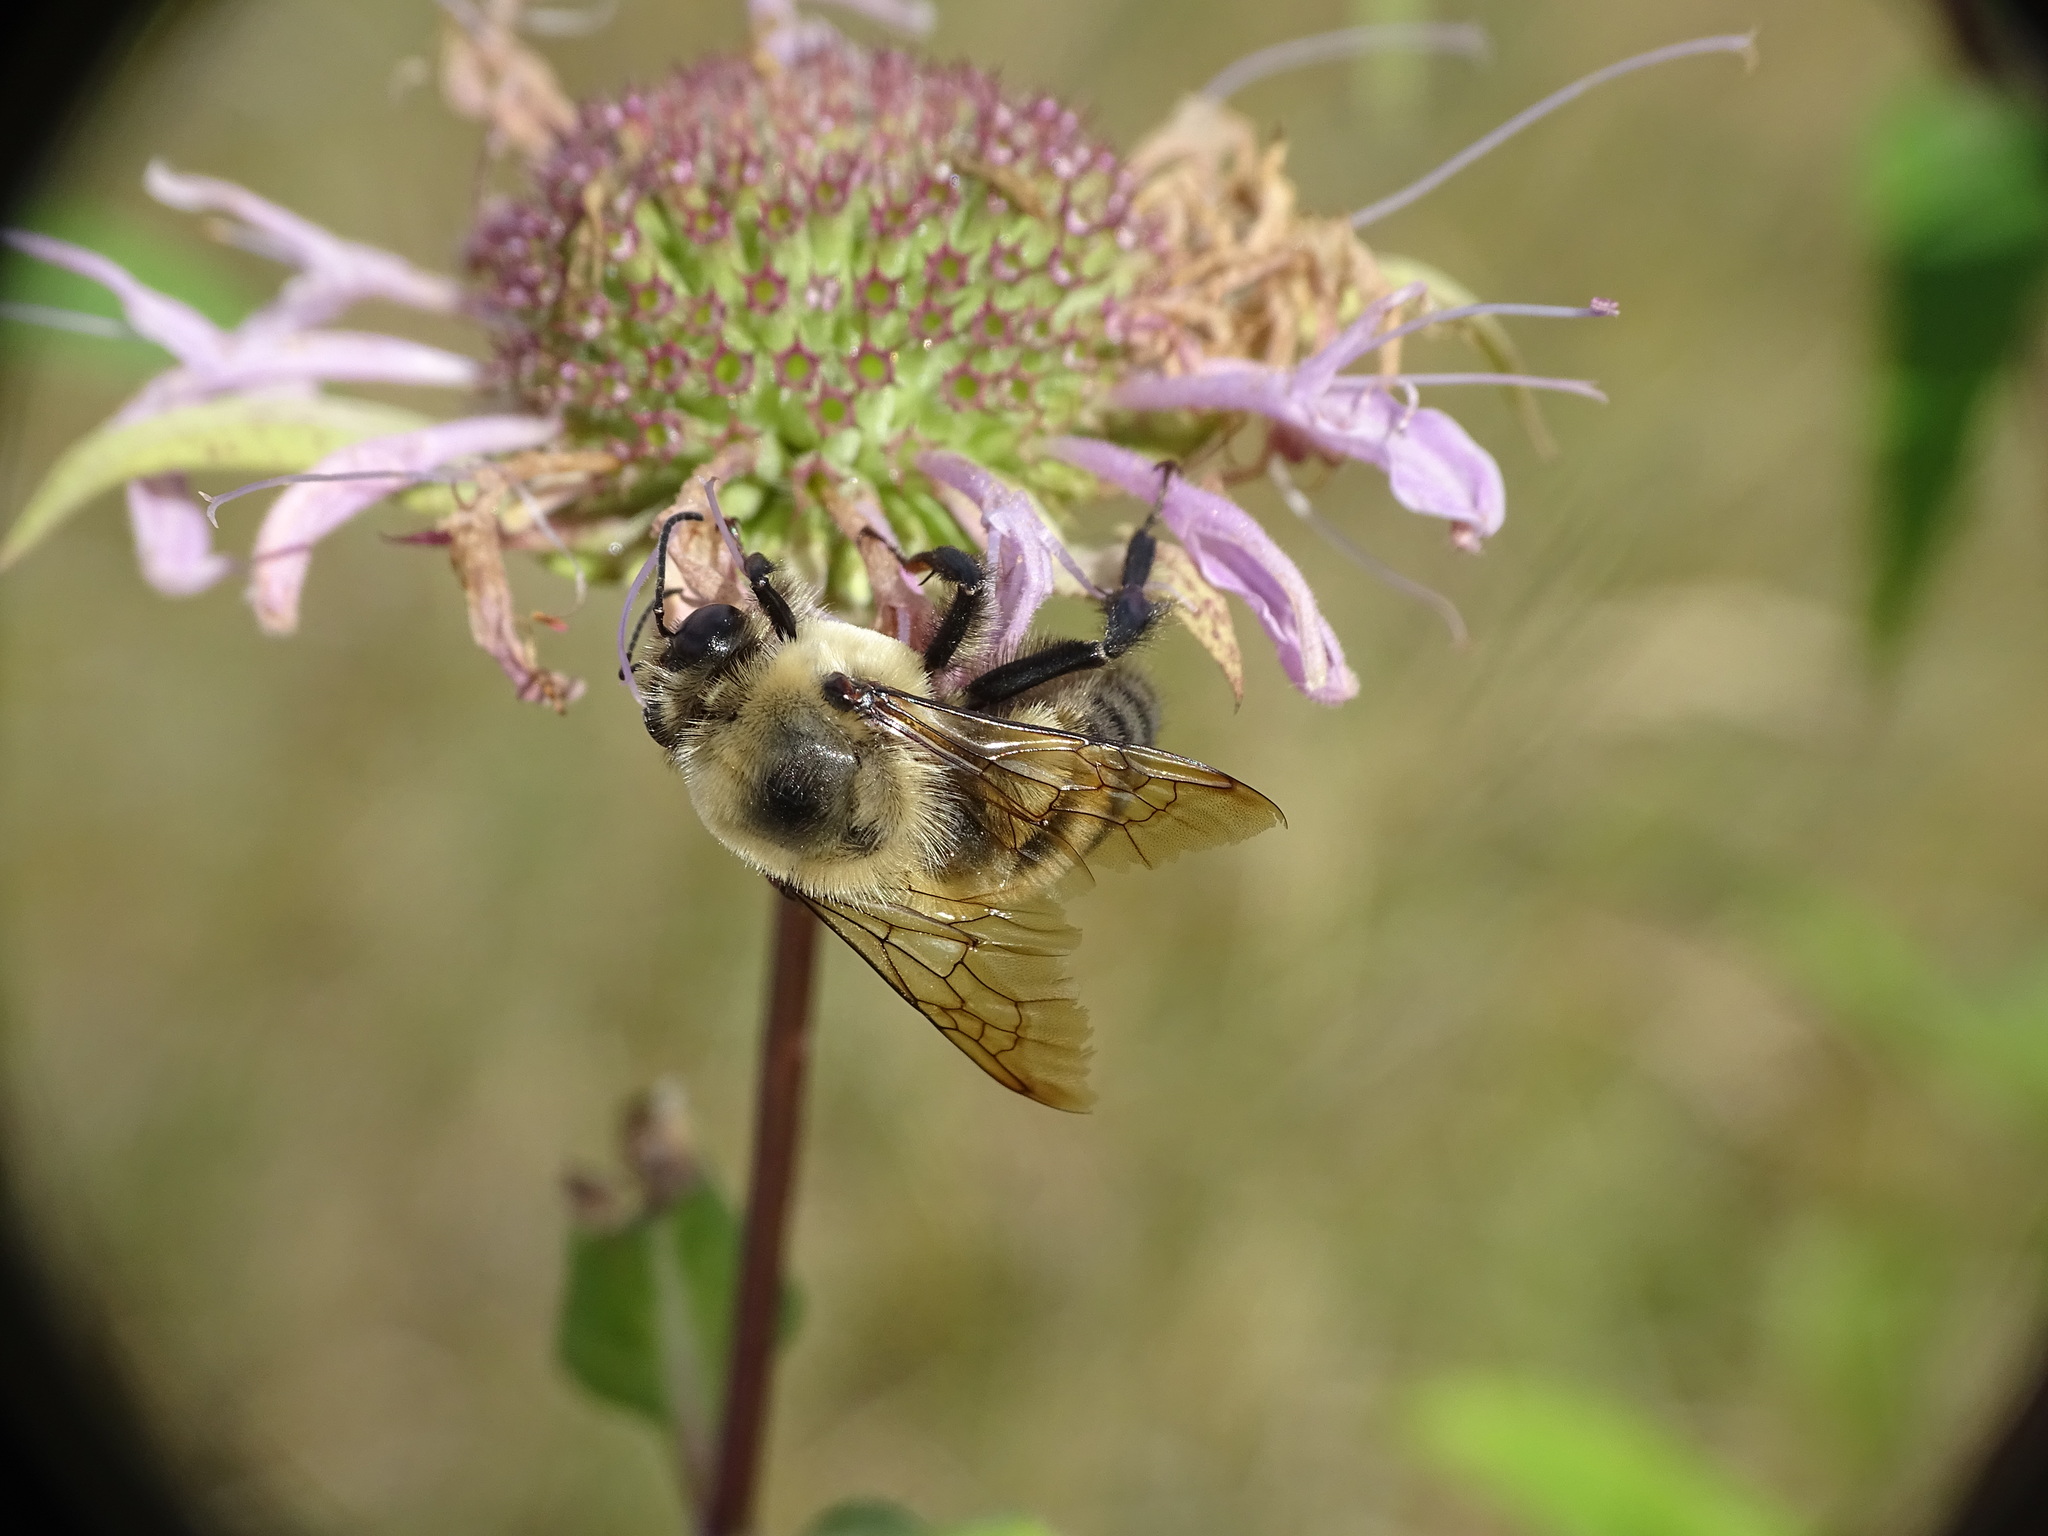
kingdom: Animalia
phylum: Arthropoda
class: Insecta
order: Hymenoptera
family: Apidae
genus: Bombus
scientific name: Bombus griseocollis
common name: Brown-belted bumble bee
